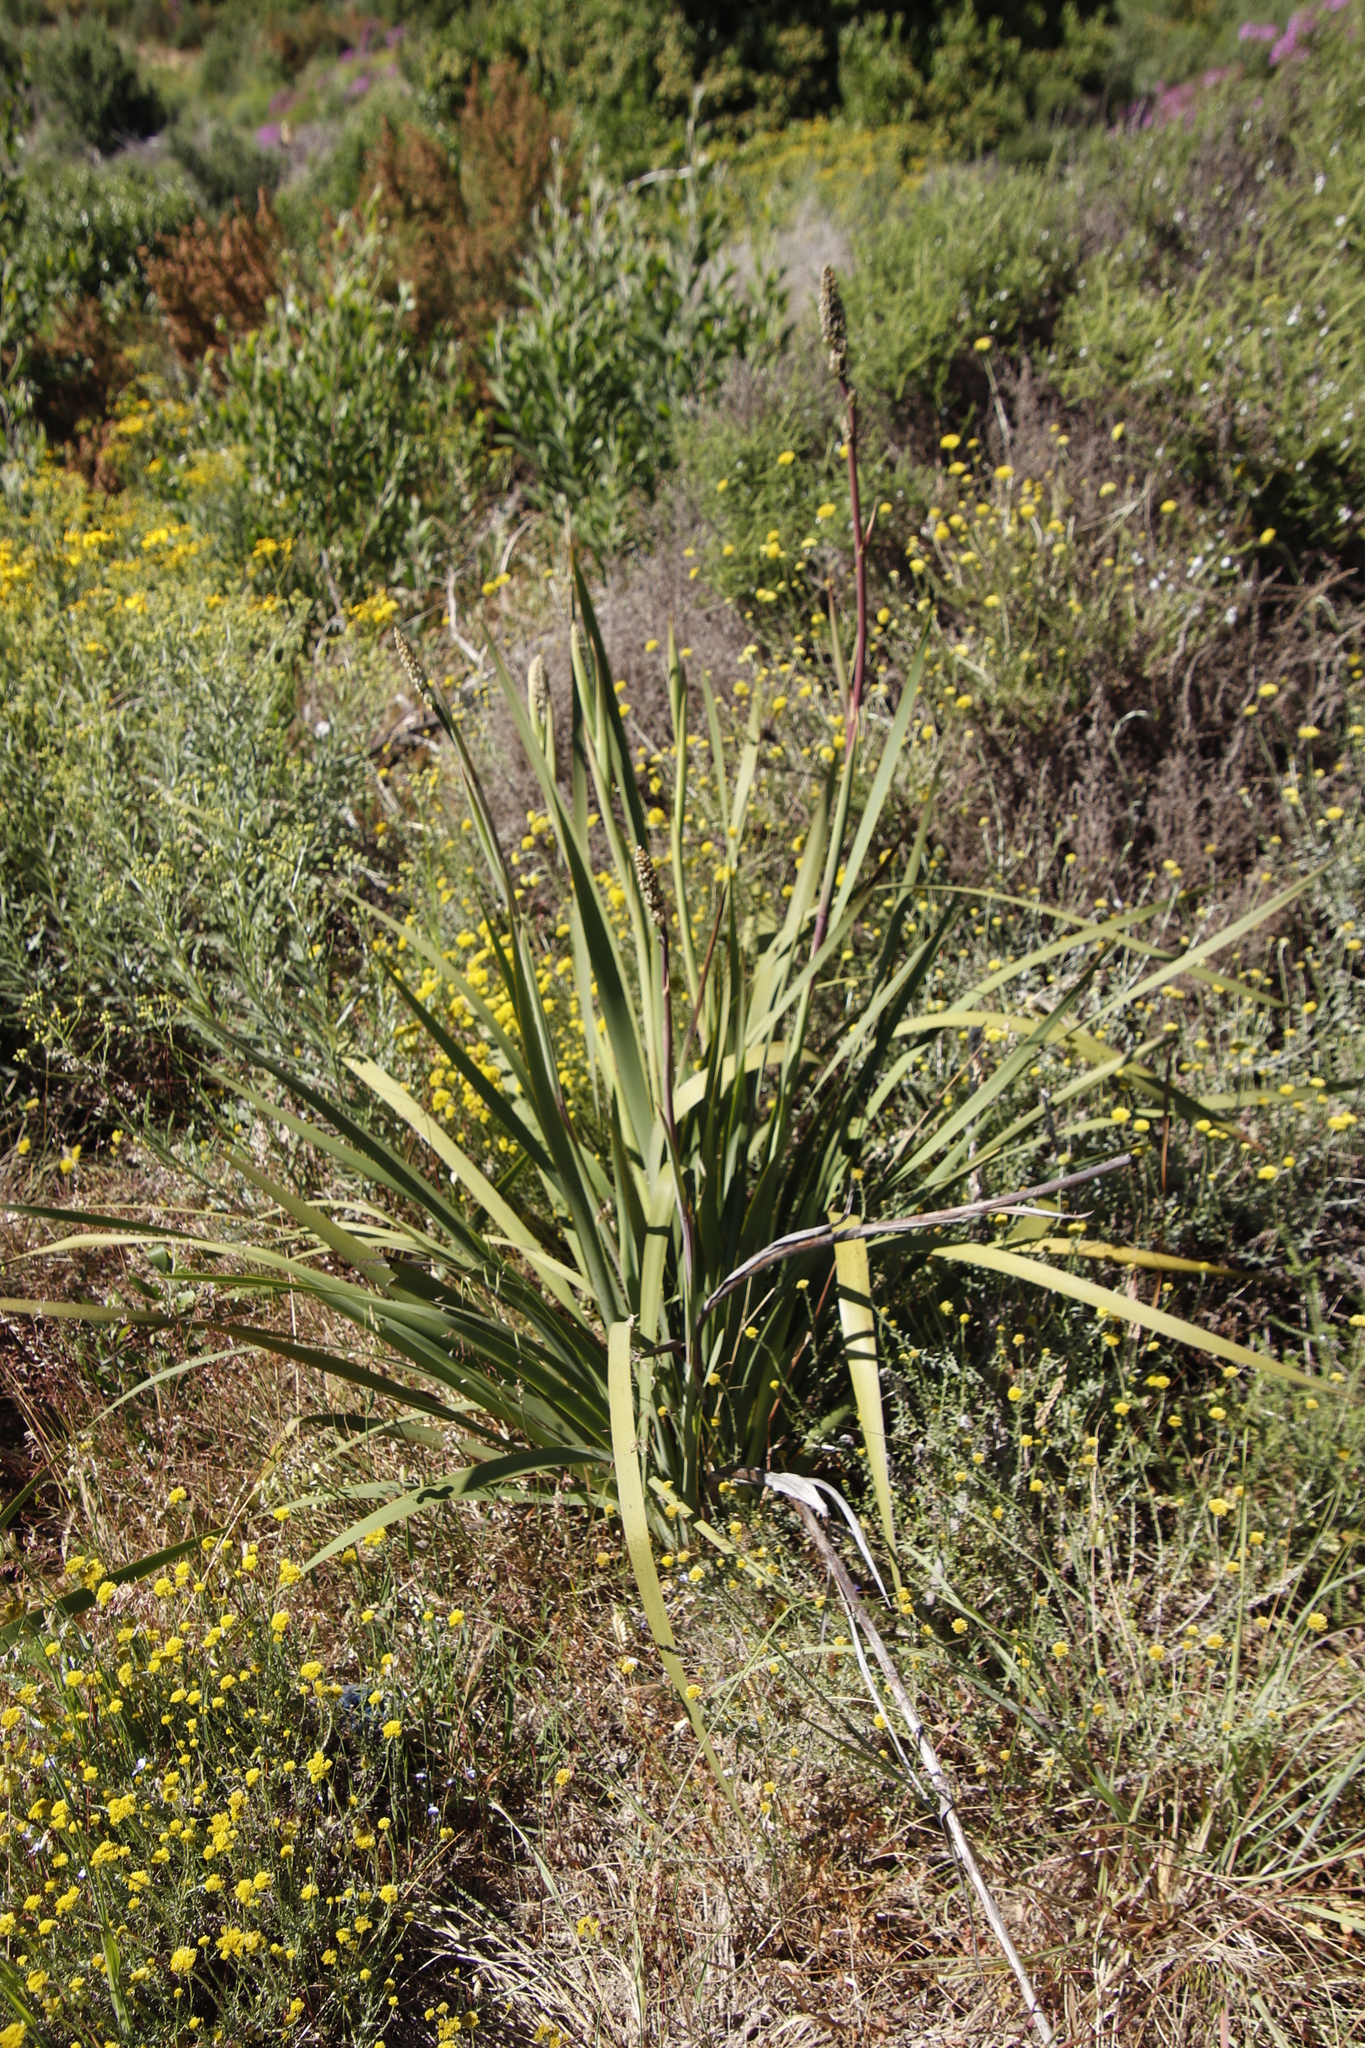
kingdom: Plantae
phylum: Tracheophyta
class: Liliopsida
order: Asparagales
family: Iridaceae
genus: Aristea
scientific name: Aristea capitata
